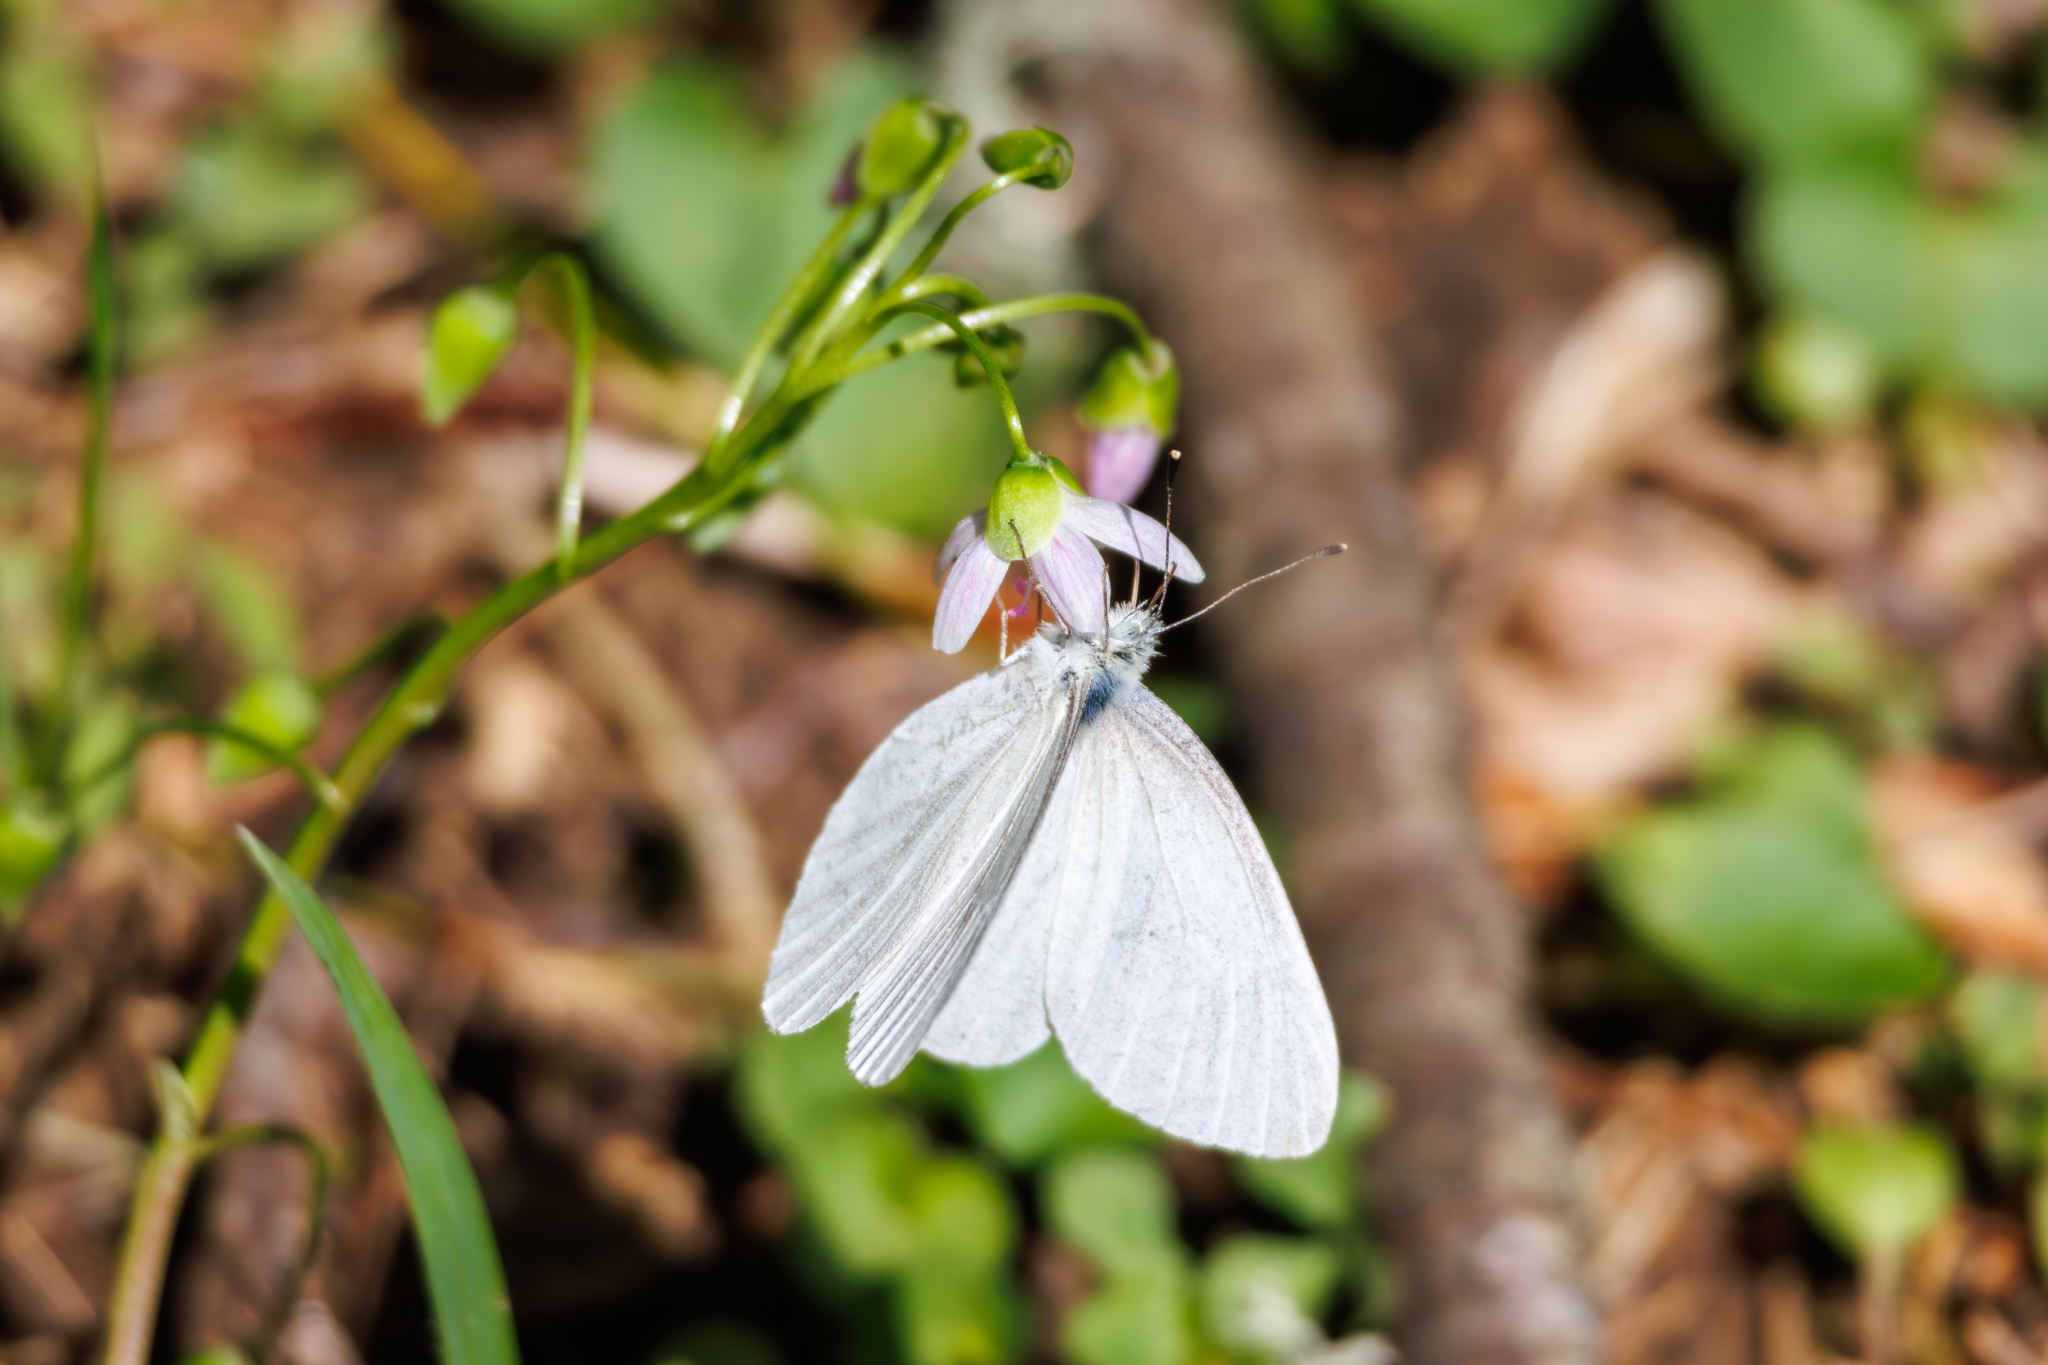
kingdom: Animalia
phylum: Arthropoda
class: Insecta
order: Lepidoptera
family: Pieridae
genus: Pieris
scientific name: Pieris virginiensis
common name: West virginia white
